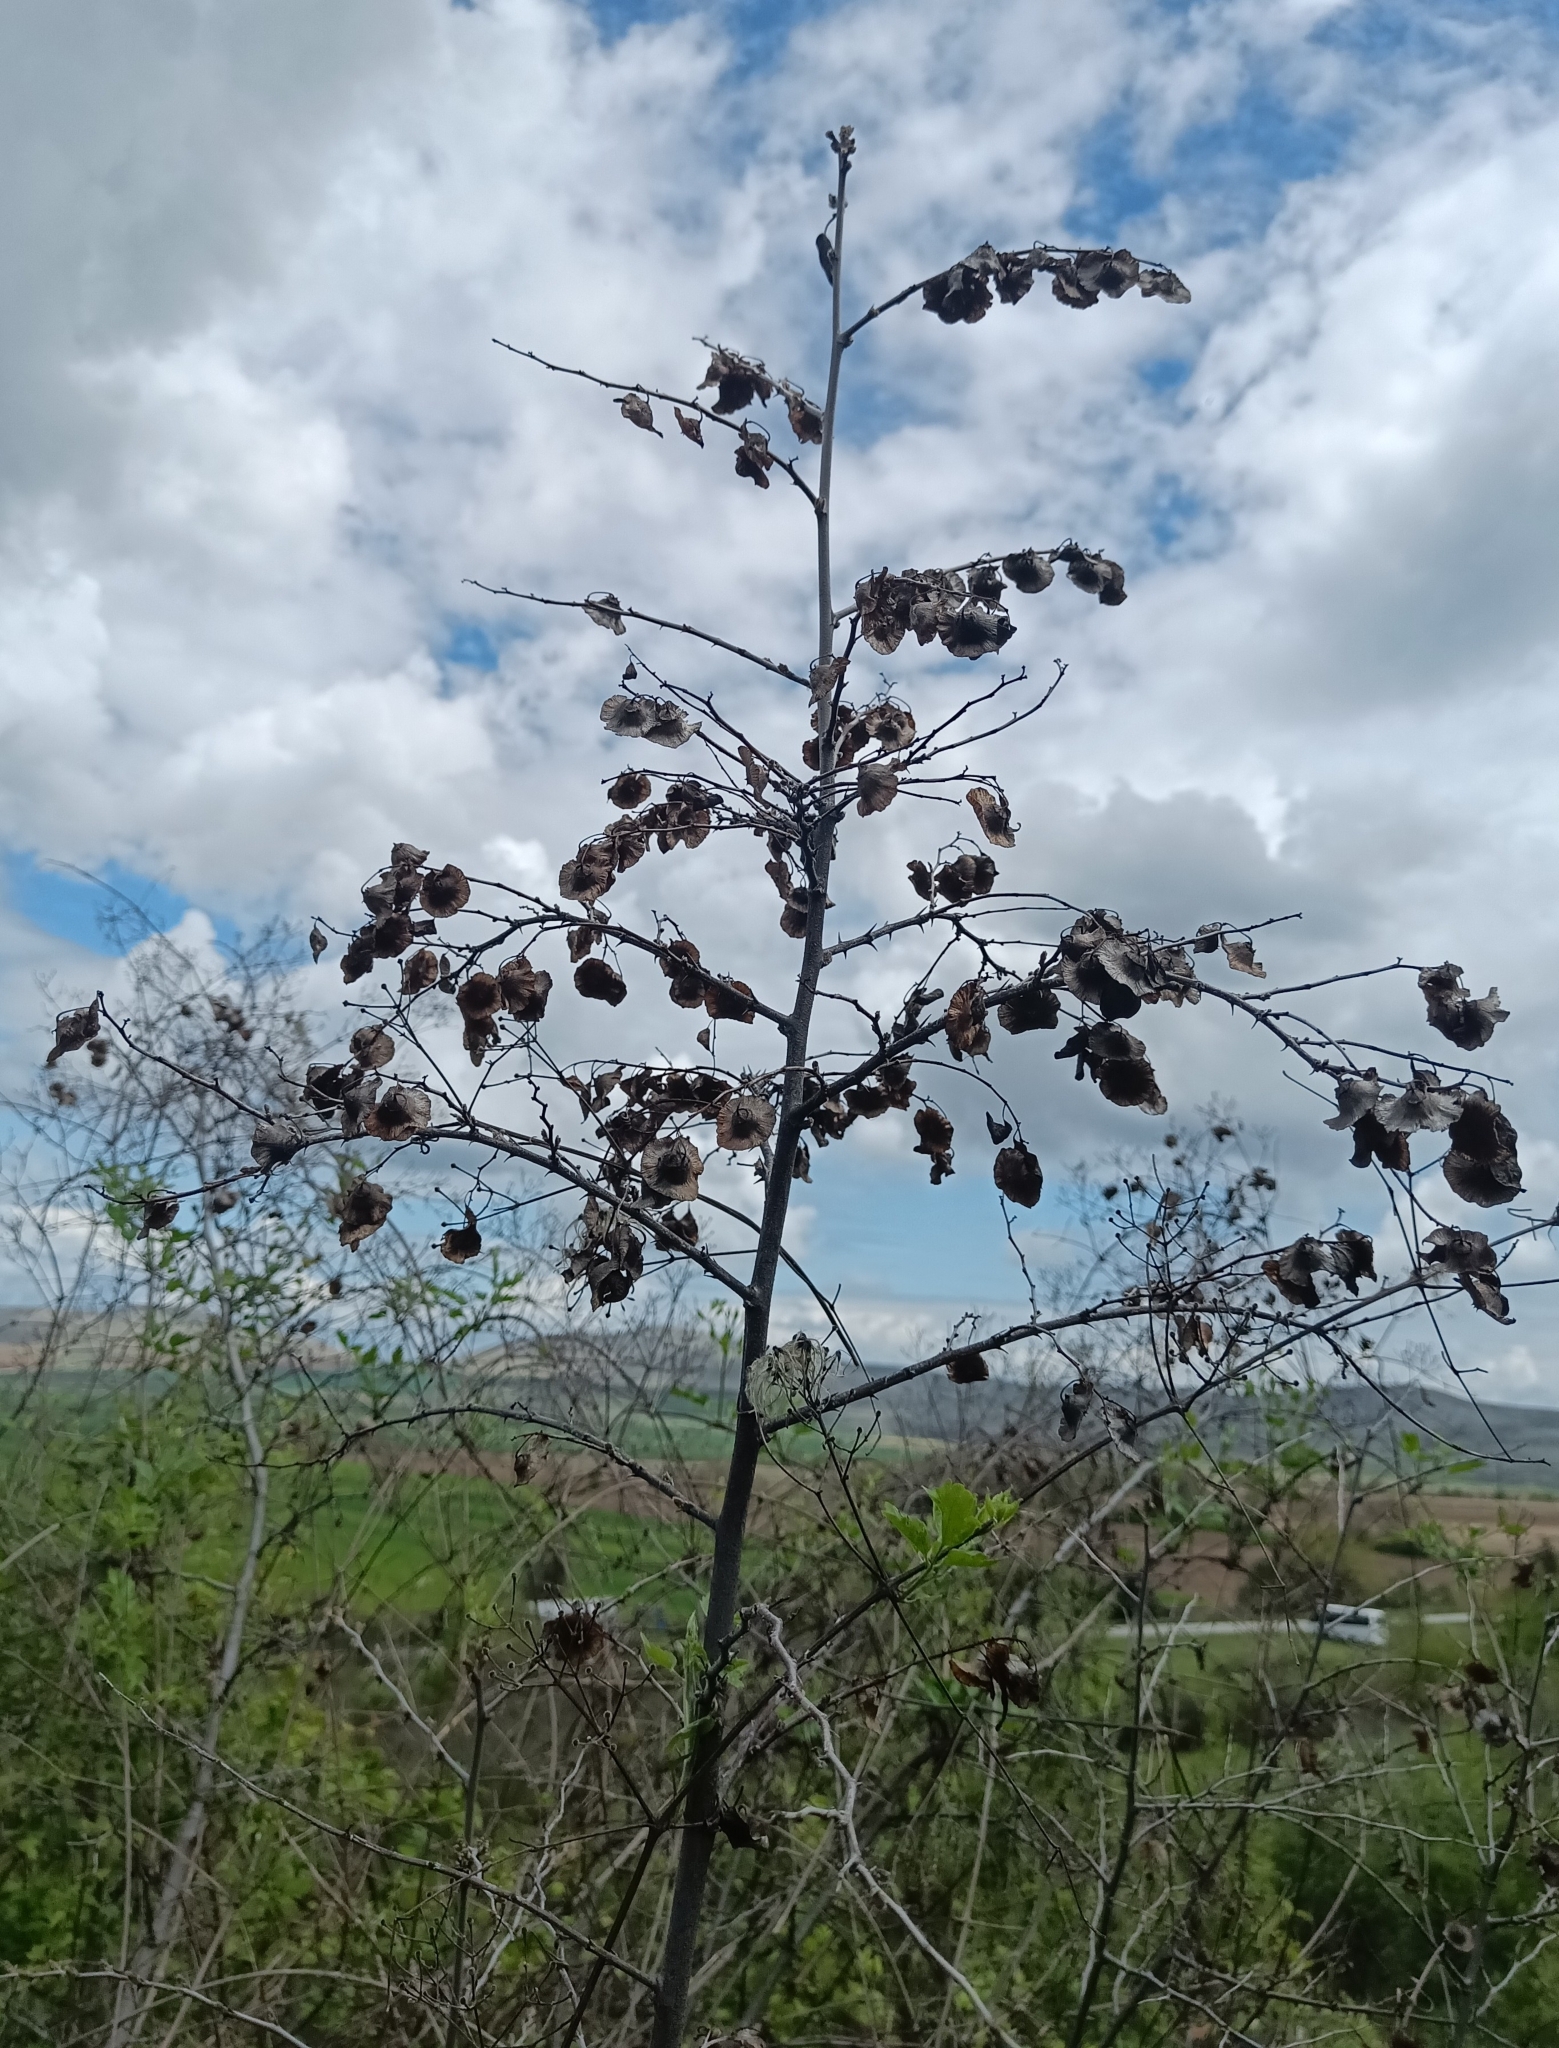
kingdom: Plantae
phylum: Tracheophyta
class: Magnoliopsida
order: Rosales
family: Rhamnaceae
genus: Paliurus
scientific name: Paliurus spina-christi
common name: Jeruselem thorn
